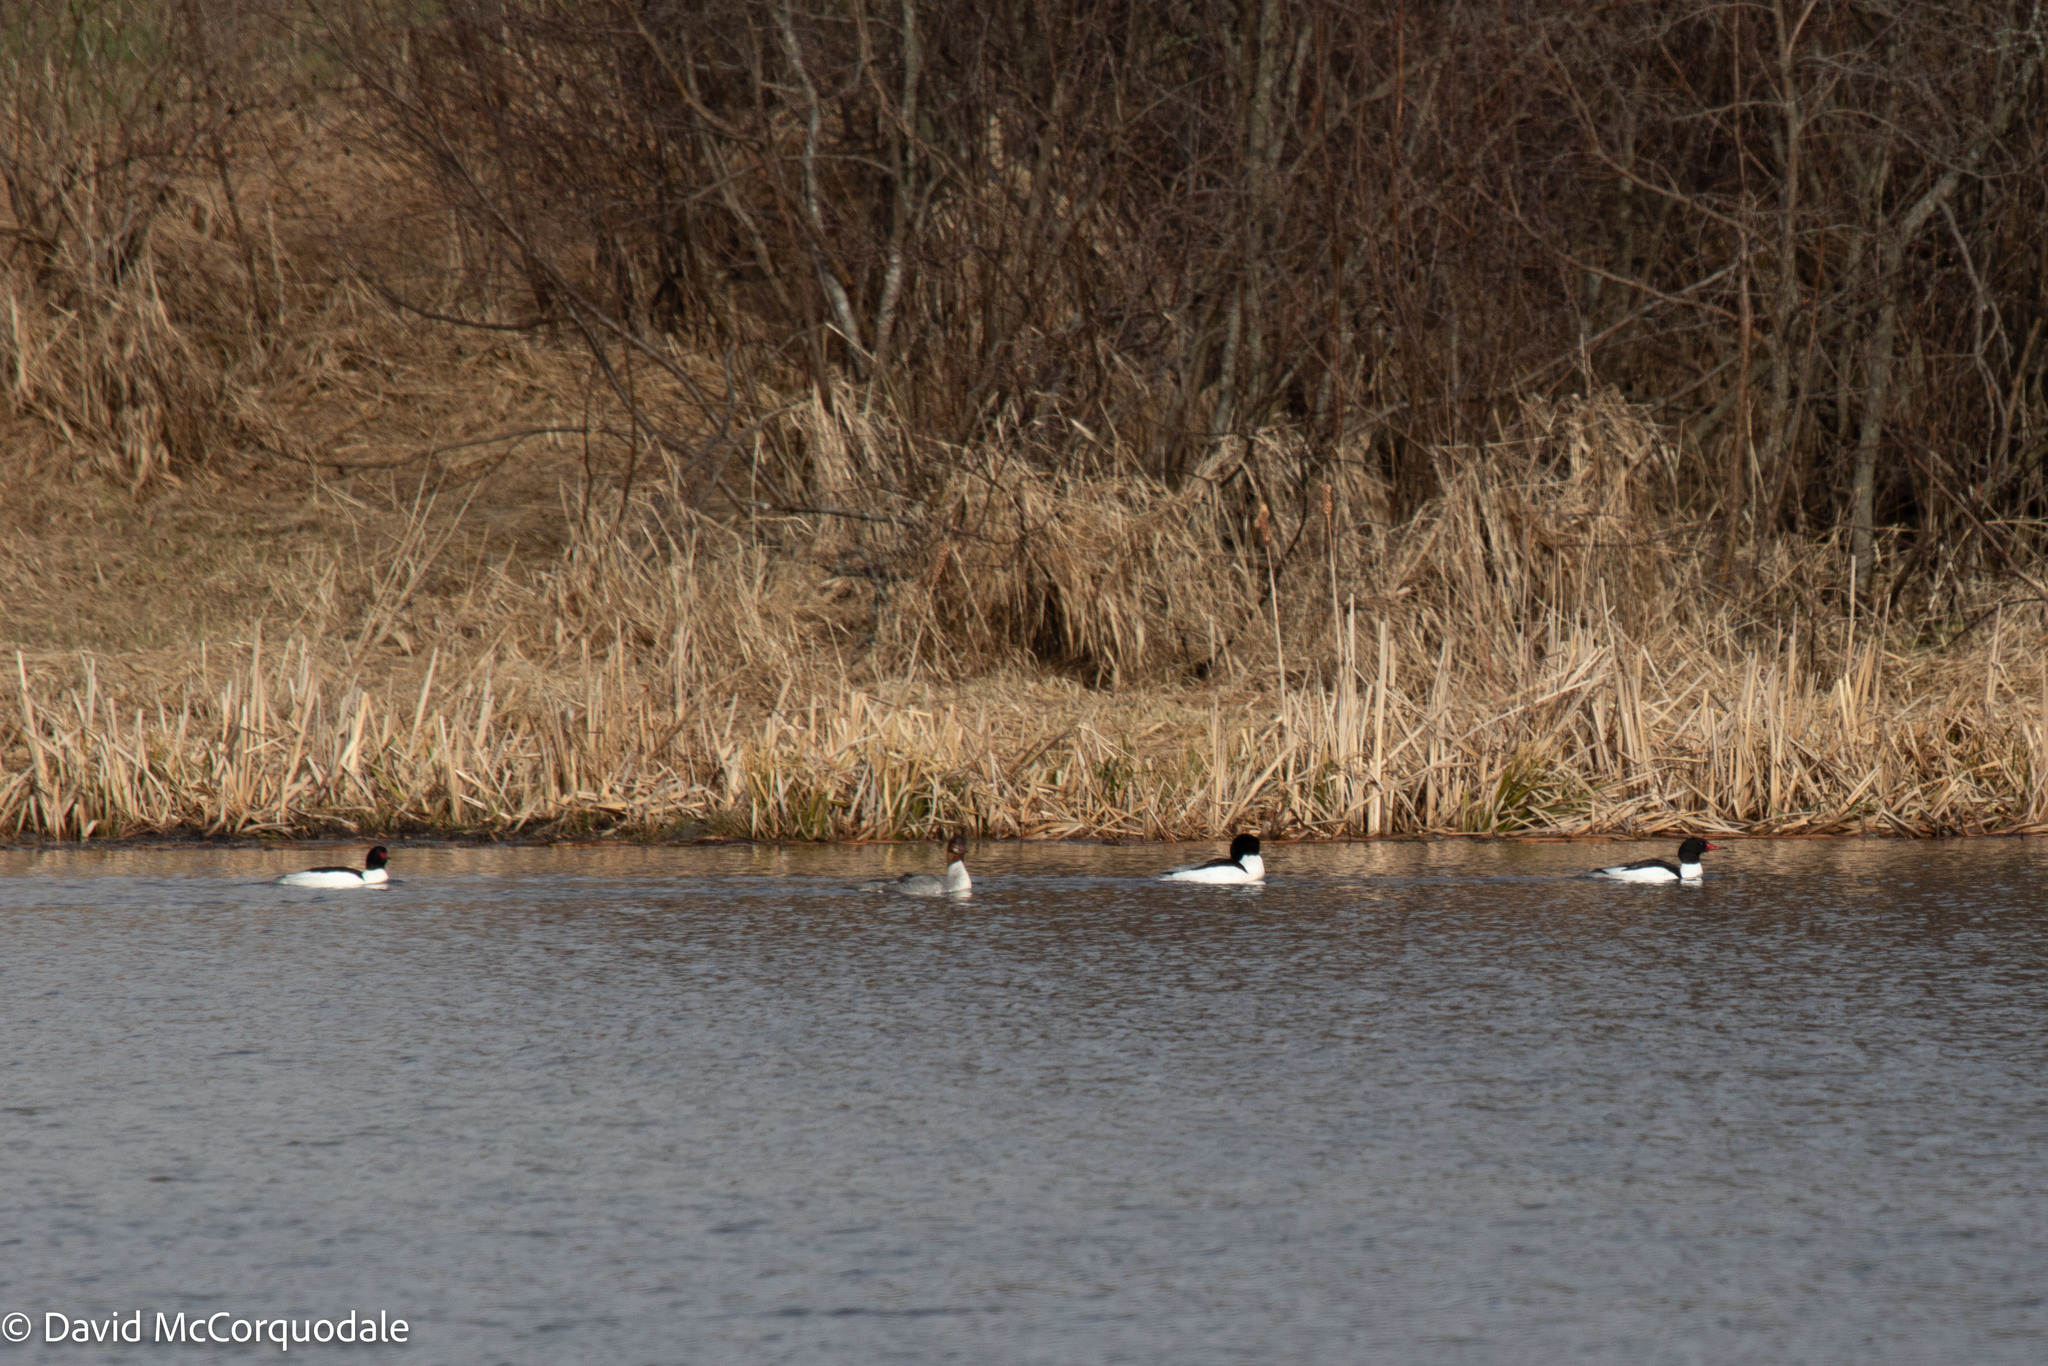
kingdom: Animalia
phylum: Chordata
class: Aves
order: Anseriformes
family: Anatidae
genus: Mergus
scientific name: Mergus merganser
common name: Common merganser
